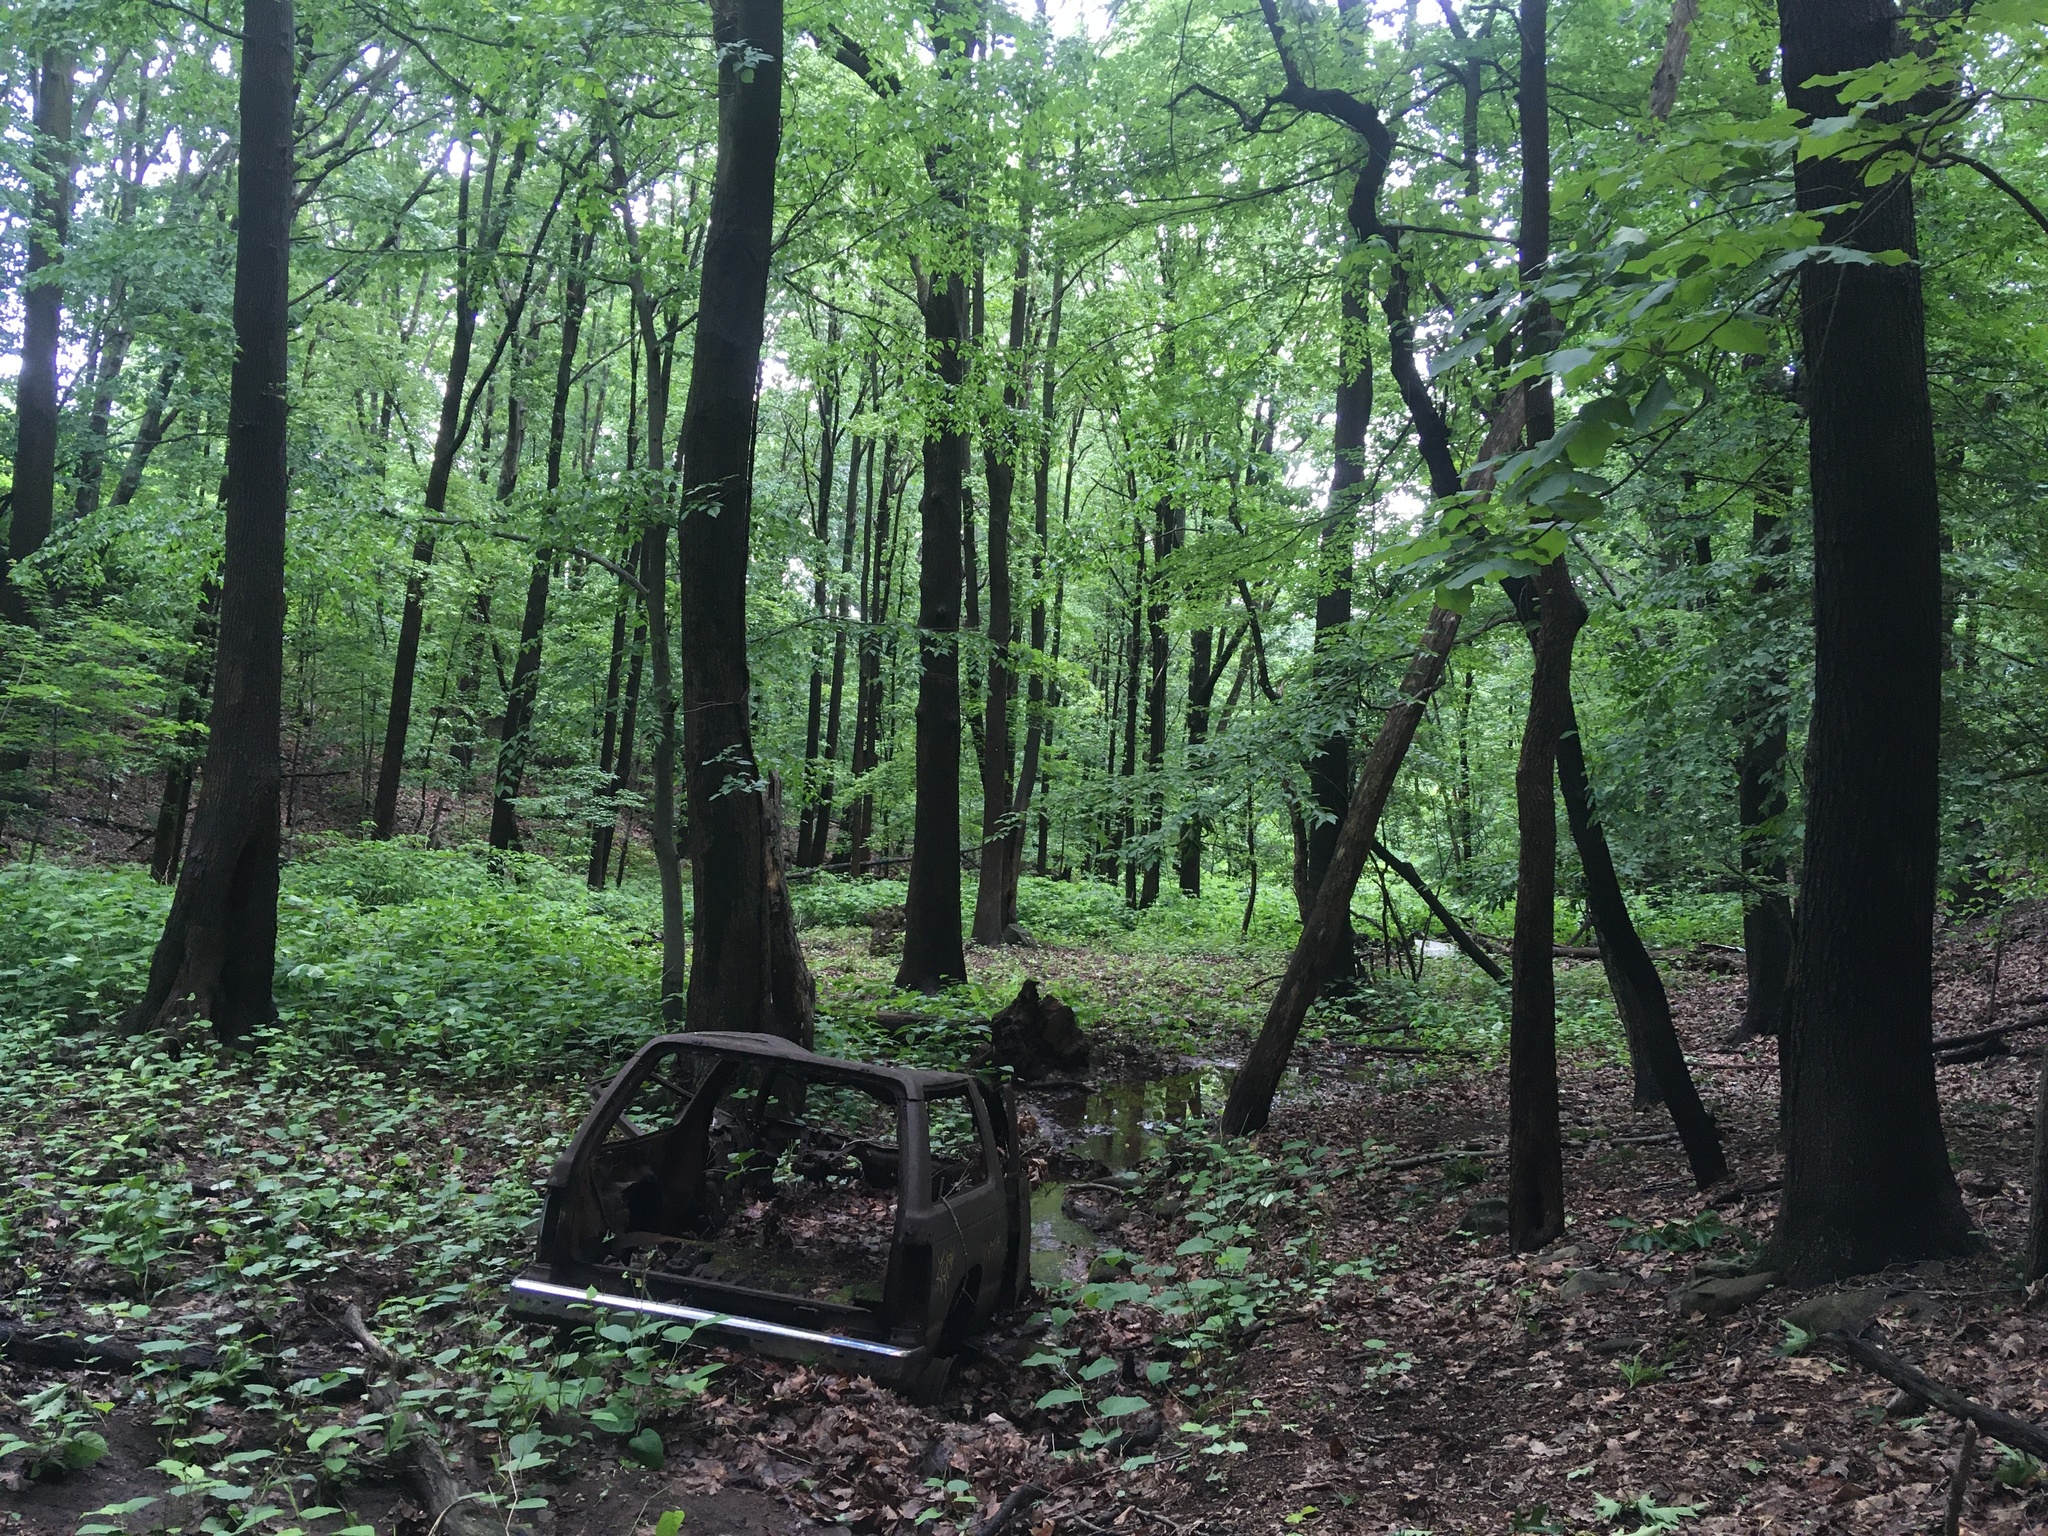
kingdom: Plantae
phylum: Tracheophyta
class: Magnoliopsida
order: Caryophyllales
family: Polygonaceae
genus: Reynoutria
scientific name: Reynoutria bohemica
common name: Bohemian knotweed
